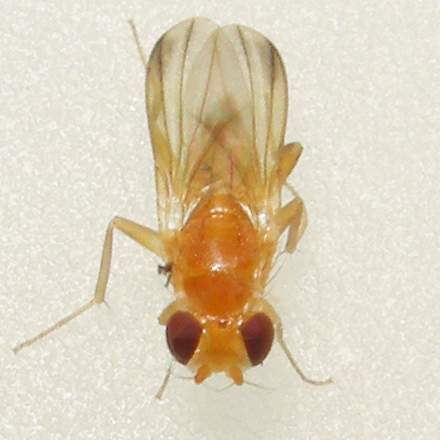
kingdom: Animalia
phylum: Arthropoda
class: Insecta
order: Diptera
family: Clusiidae
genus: Sobarocephala
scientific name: Sobarocephala flaviseta
